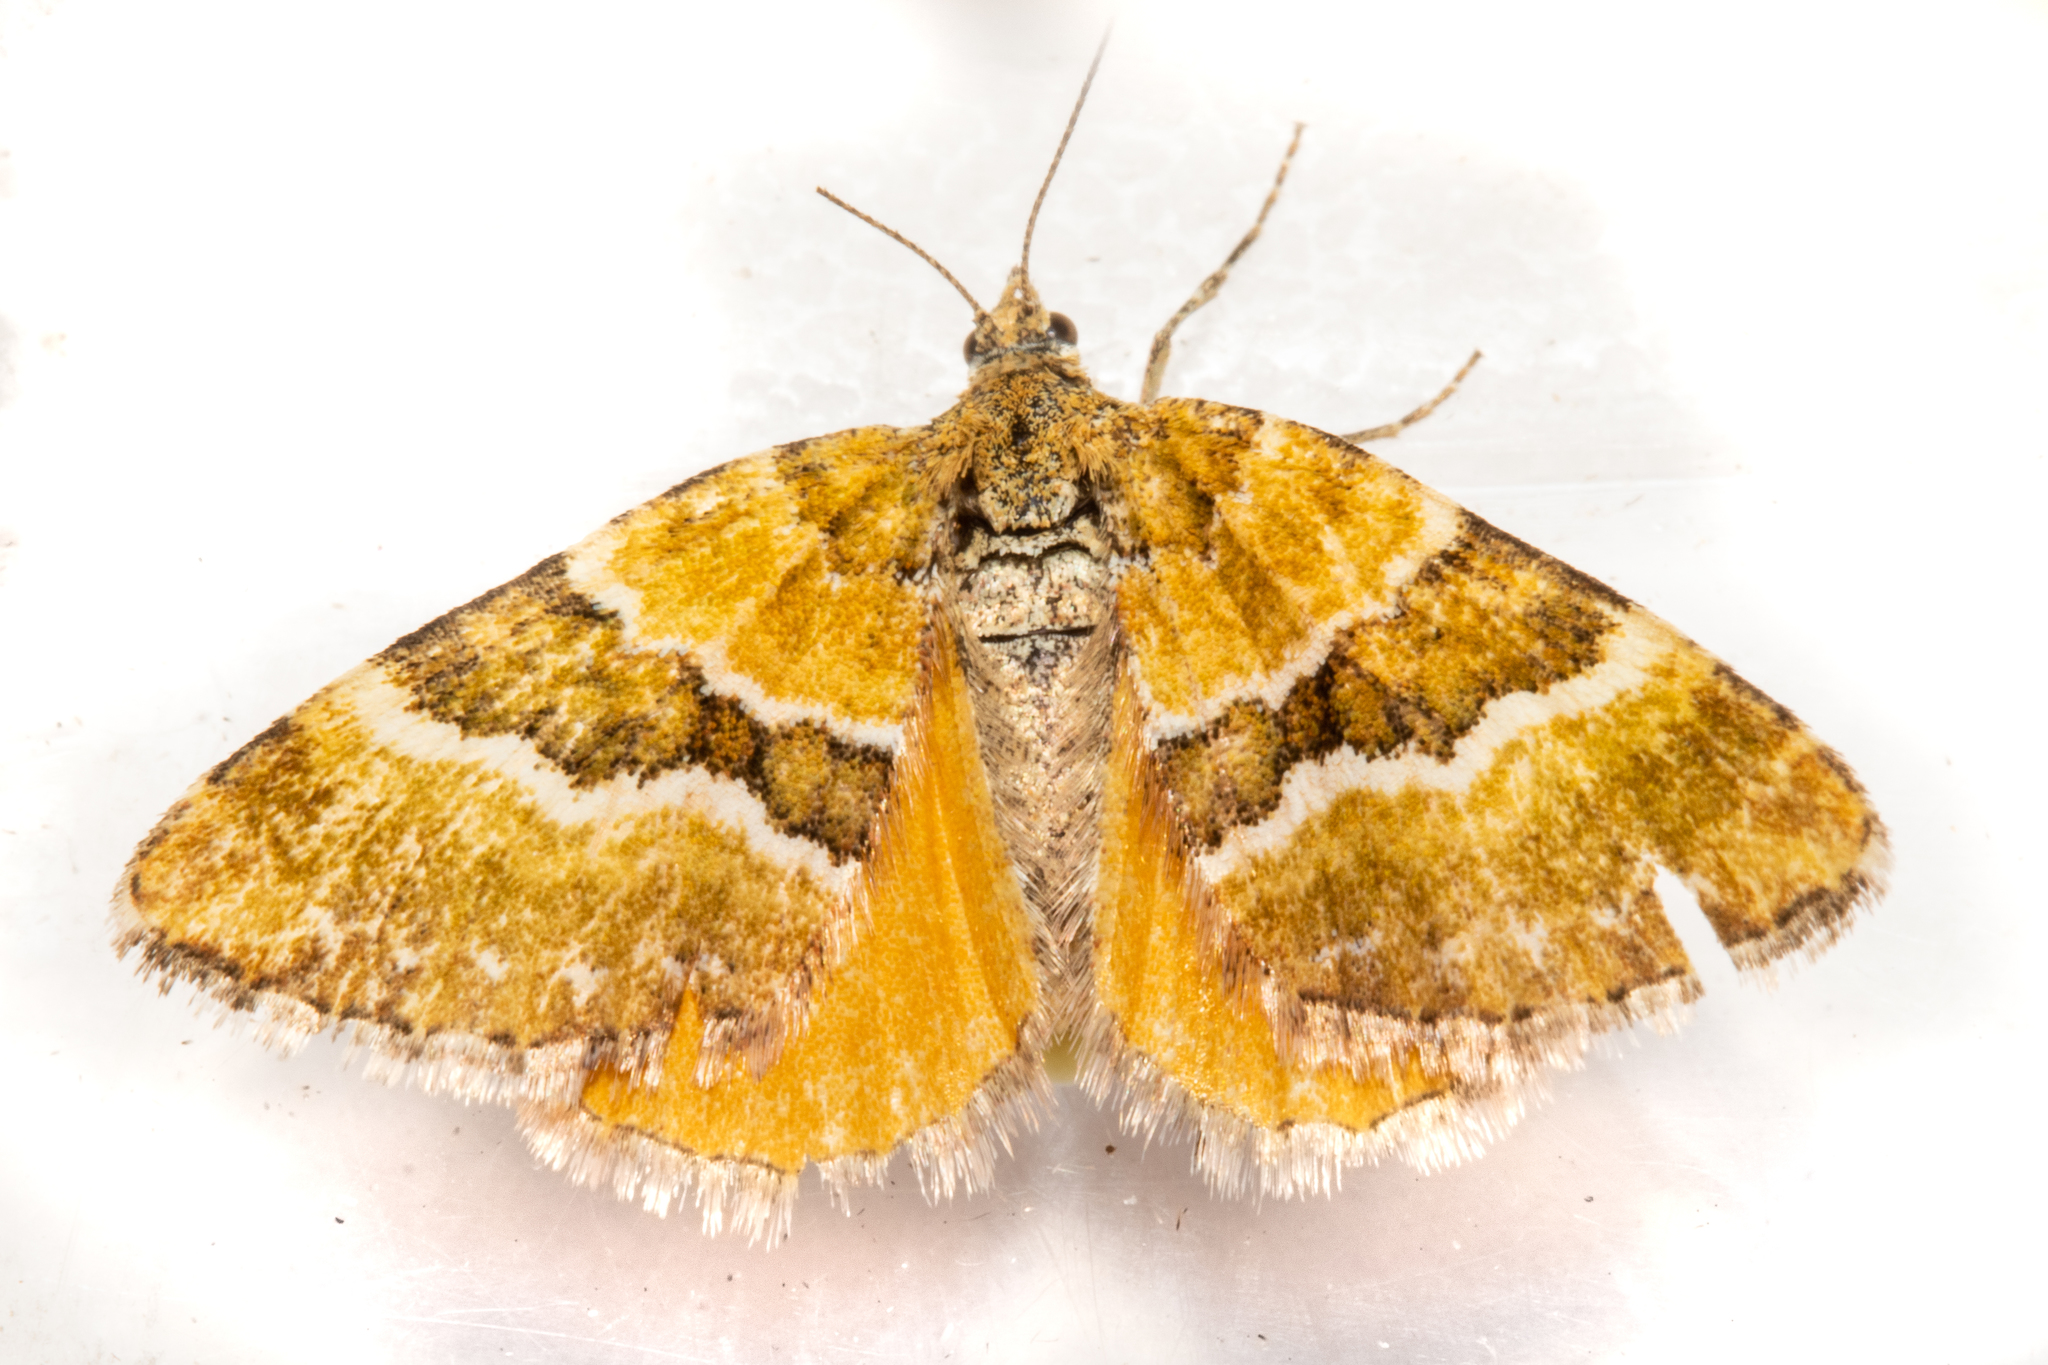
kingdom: Animalia
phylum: Arthropoda
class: Insecta
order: Lepidoptera
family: Geometridae
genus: Asaphodes
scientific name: Asaphodes cinnabari
